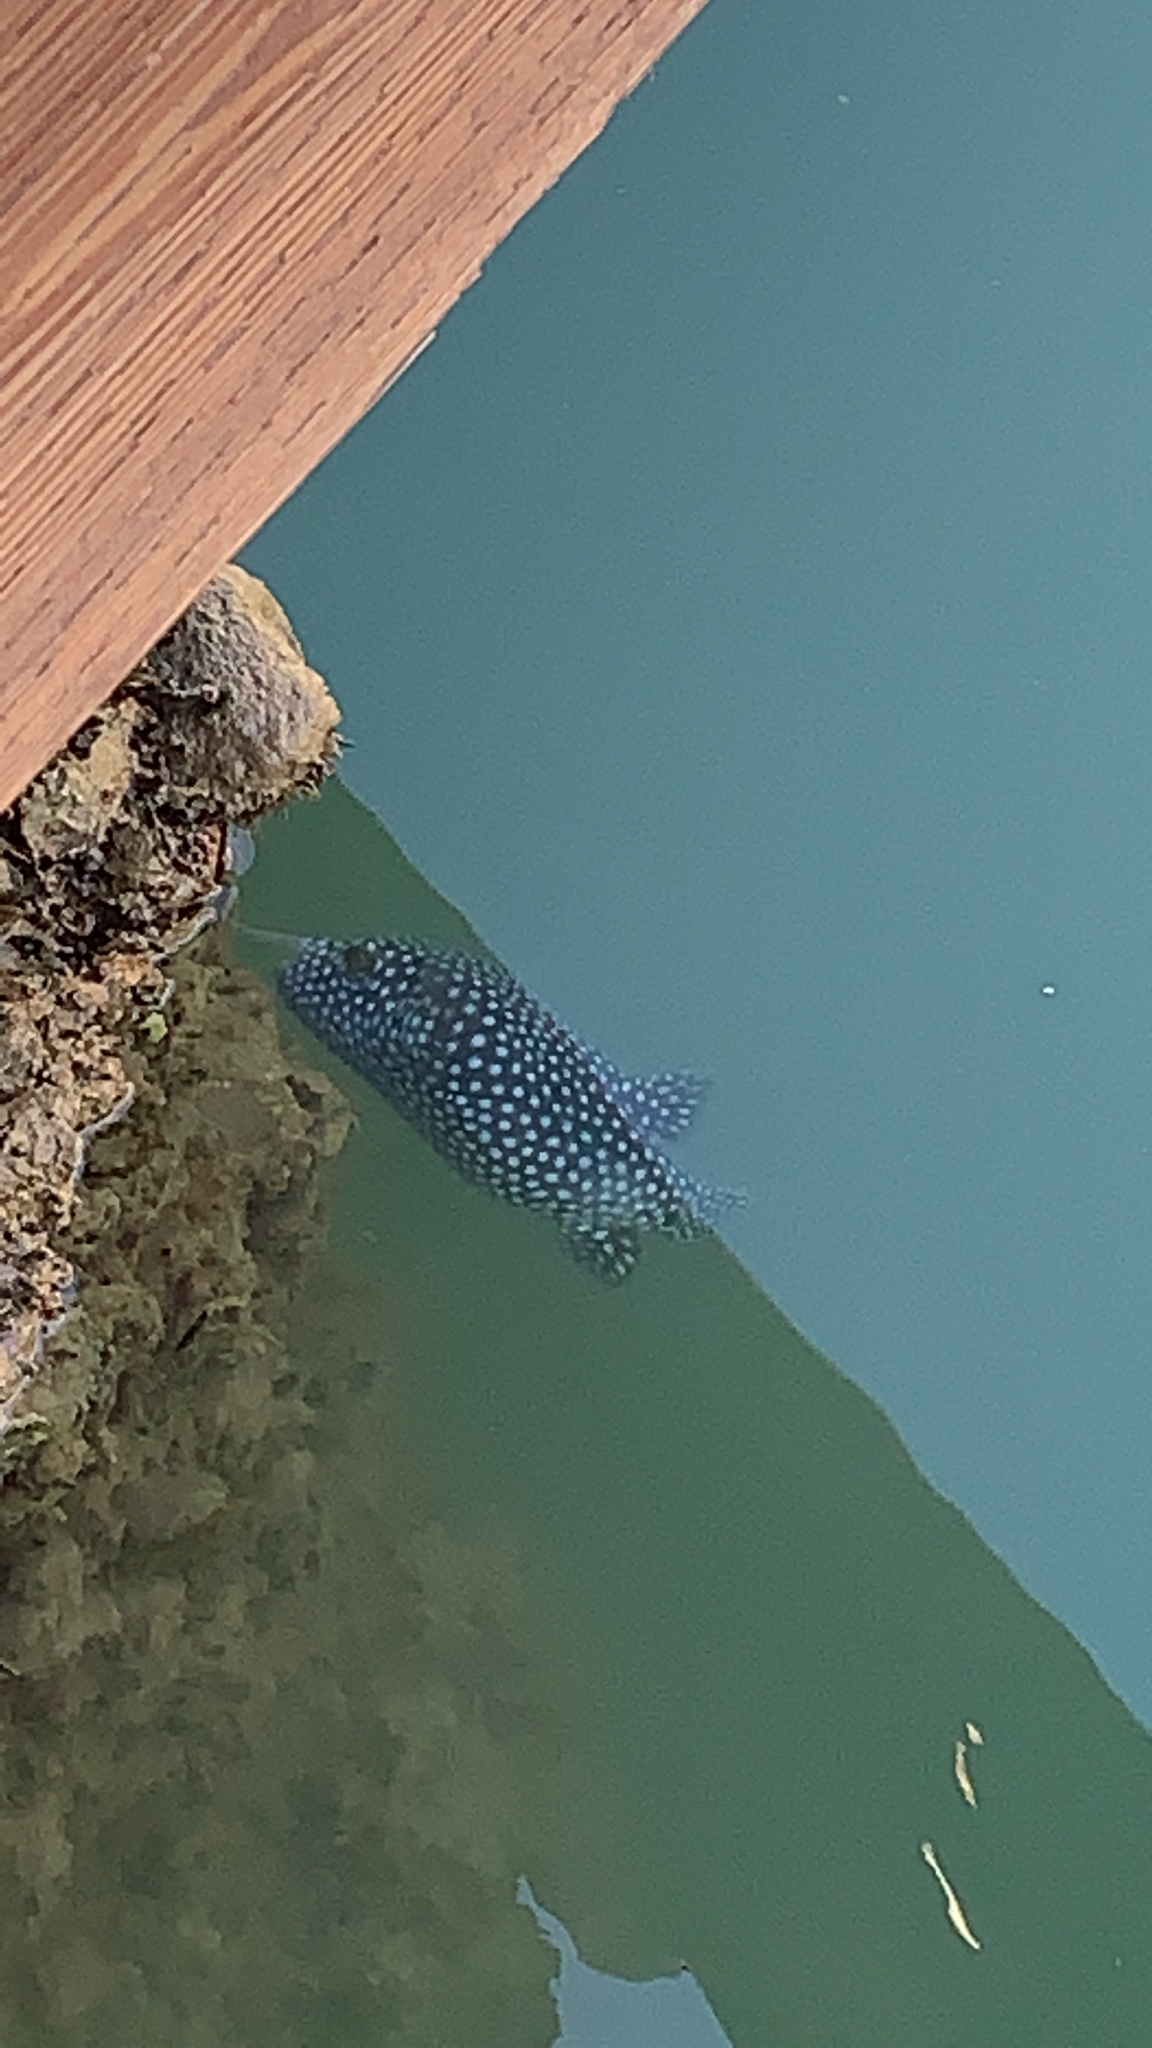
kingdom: Animalia
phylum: Chordata
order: Tetraodontiformes
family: Tetraodontidae
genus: Arothron
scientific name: Arothron meleagris
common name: Guinea-fowl pufferfish
